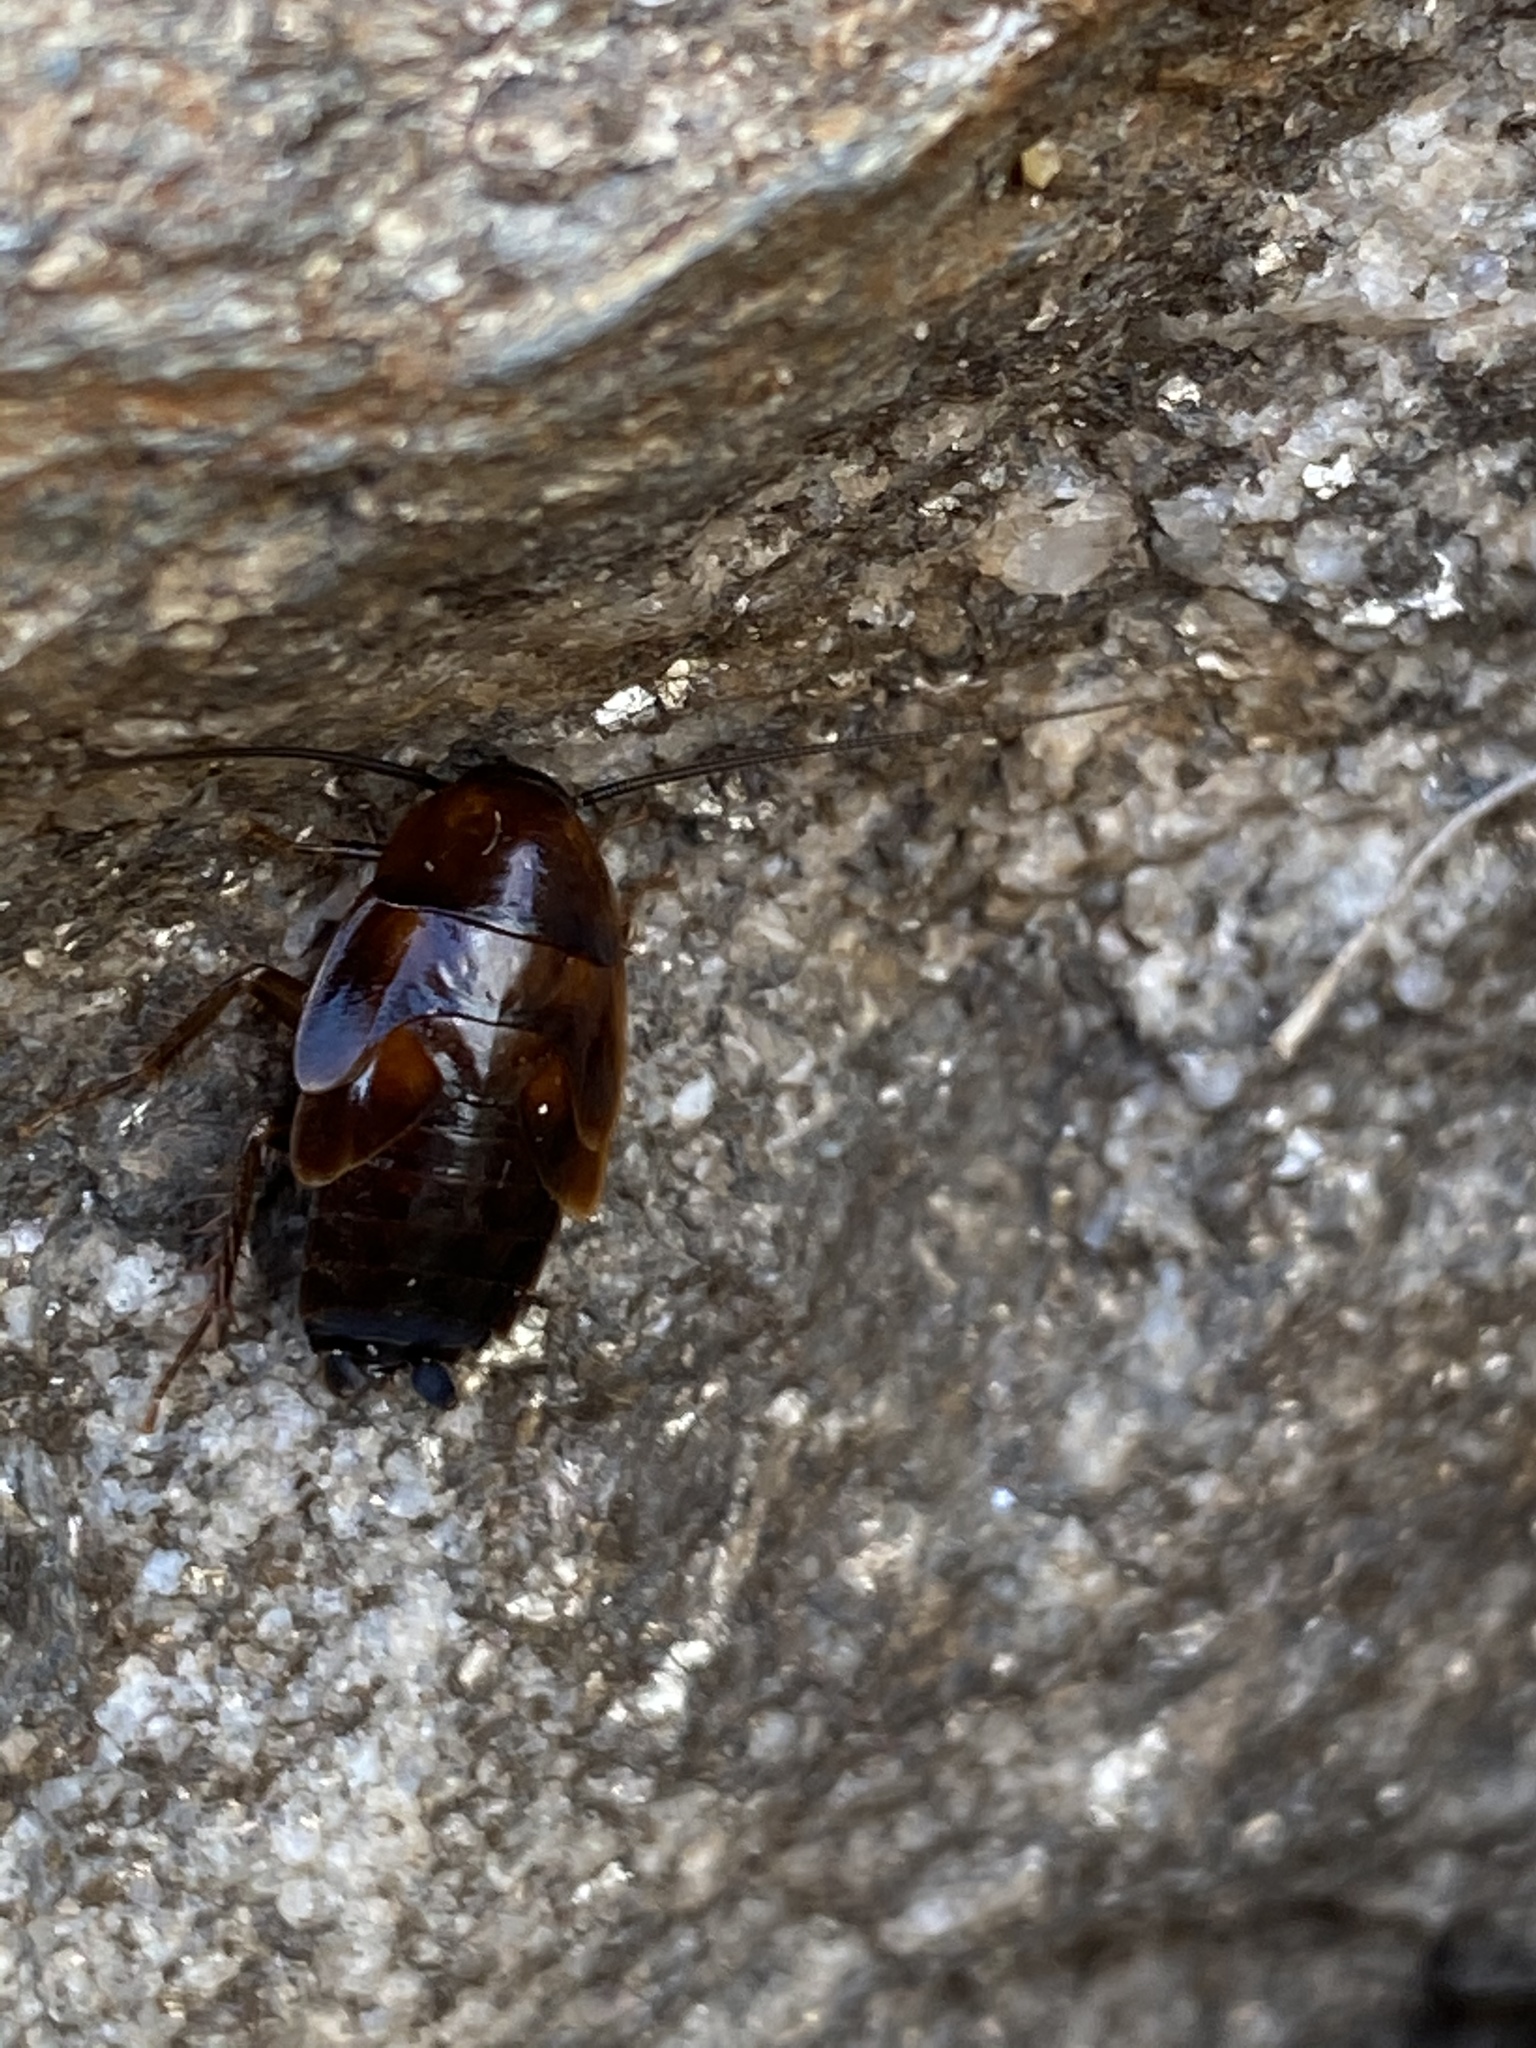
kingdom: Animalia
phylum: Arthropoda
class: Insecta
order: Blattodea
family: Ectobiidae
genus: Parcoblatta
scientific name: Parcoblatta pennsylvanica
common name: Pennsylvanian wood cockroach
